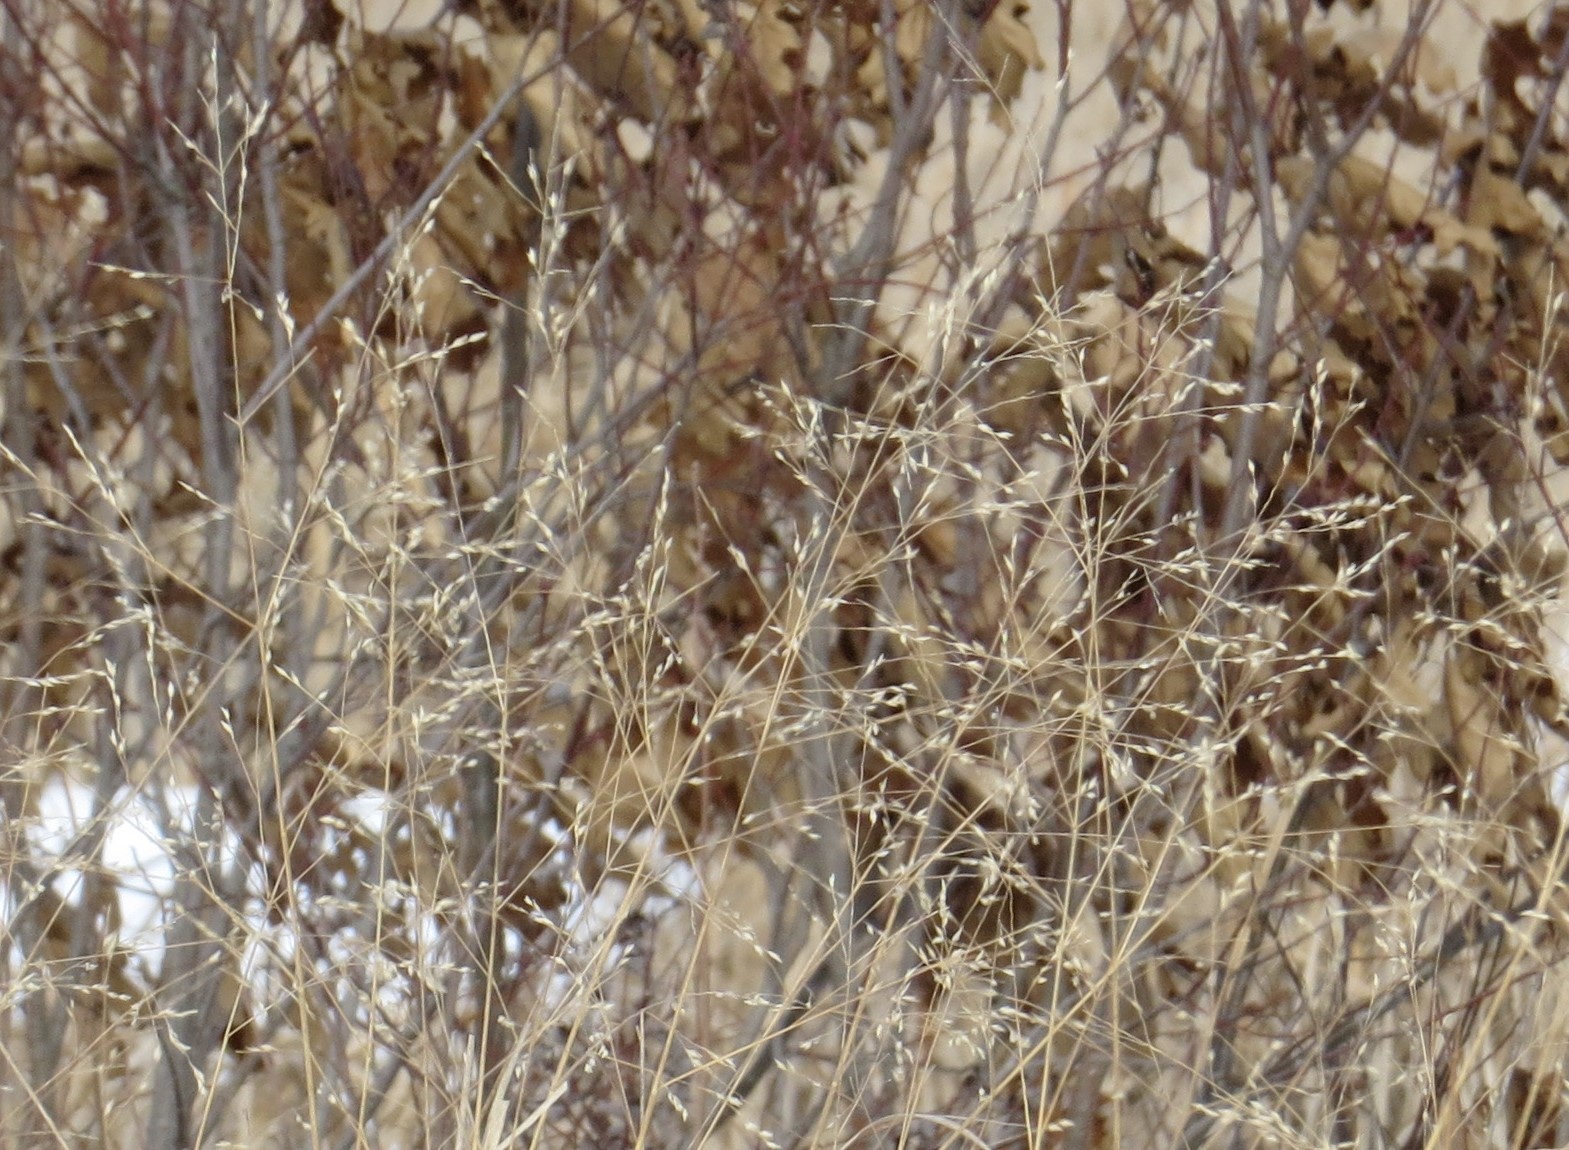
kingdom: Plantae
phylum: Tracheophyta
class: Liliopsida
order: Poales
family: Poaceae
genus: Panicum
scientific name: Panicum virgatum
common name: Switchgrass
